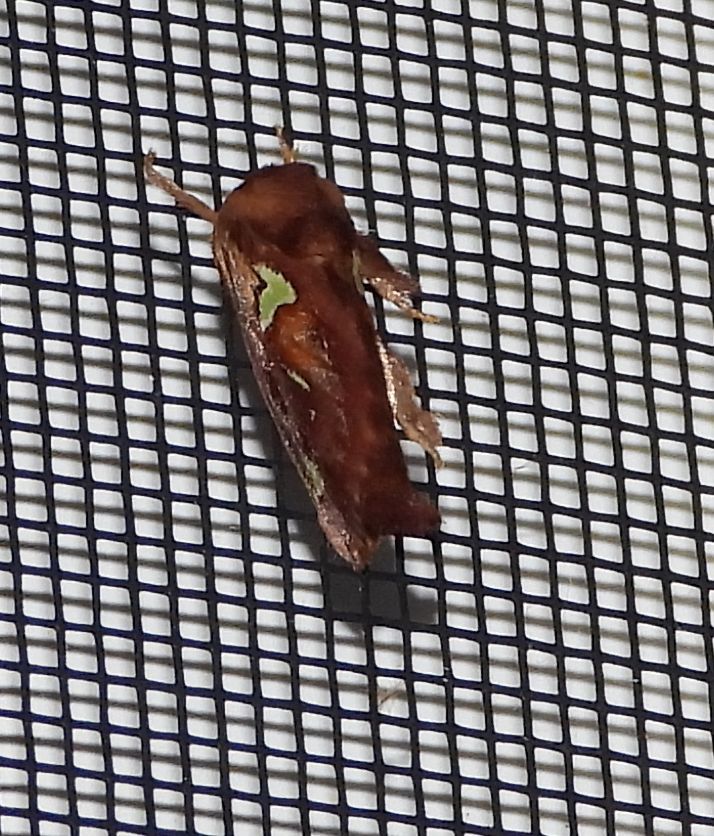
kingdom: Animalia
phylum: Arthropoda
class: Insecta
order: Lepidoptera
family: Limacodidae
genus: Euclea
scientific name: Euclea delphinii
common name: Spiny oak-slug moth
